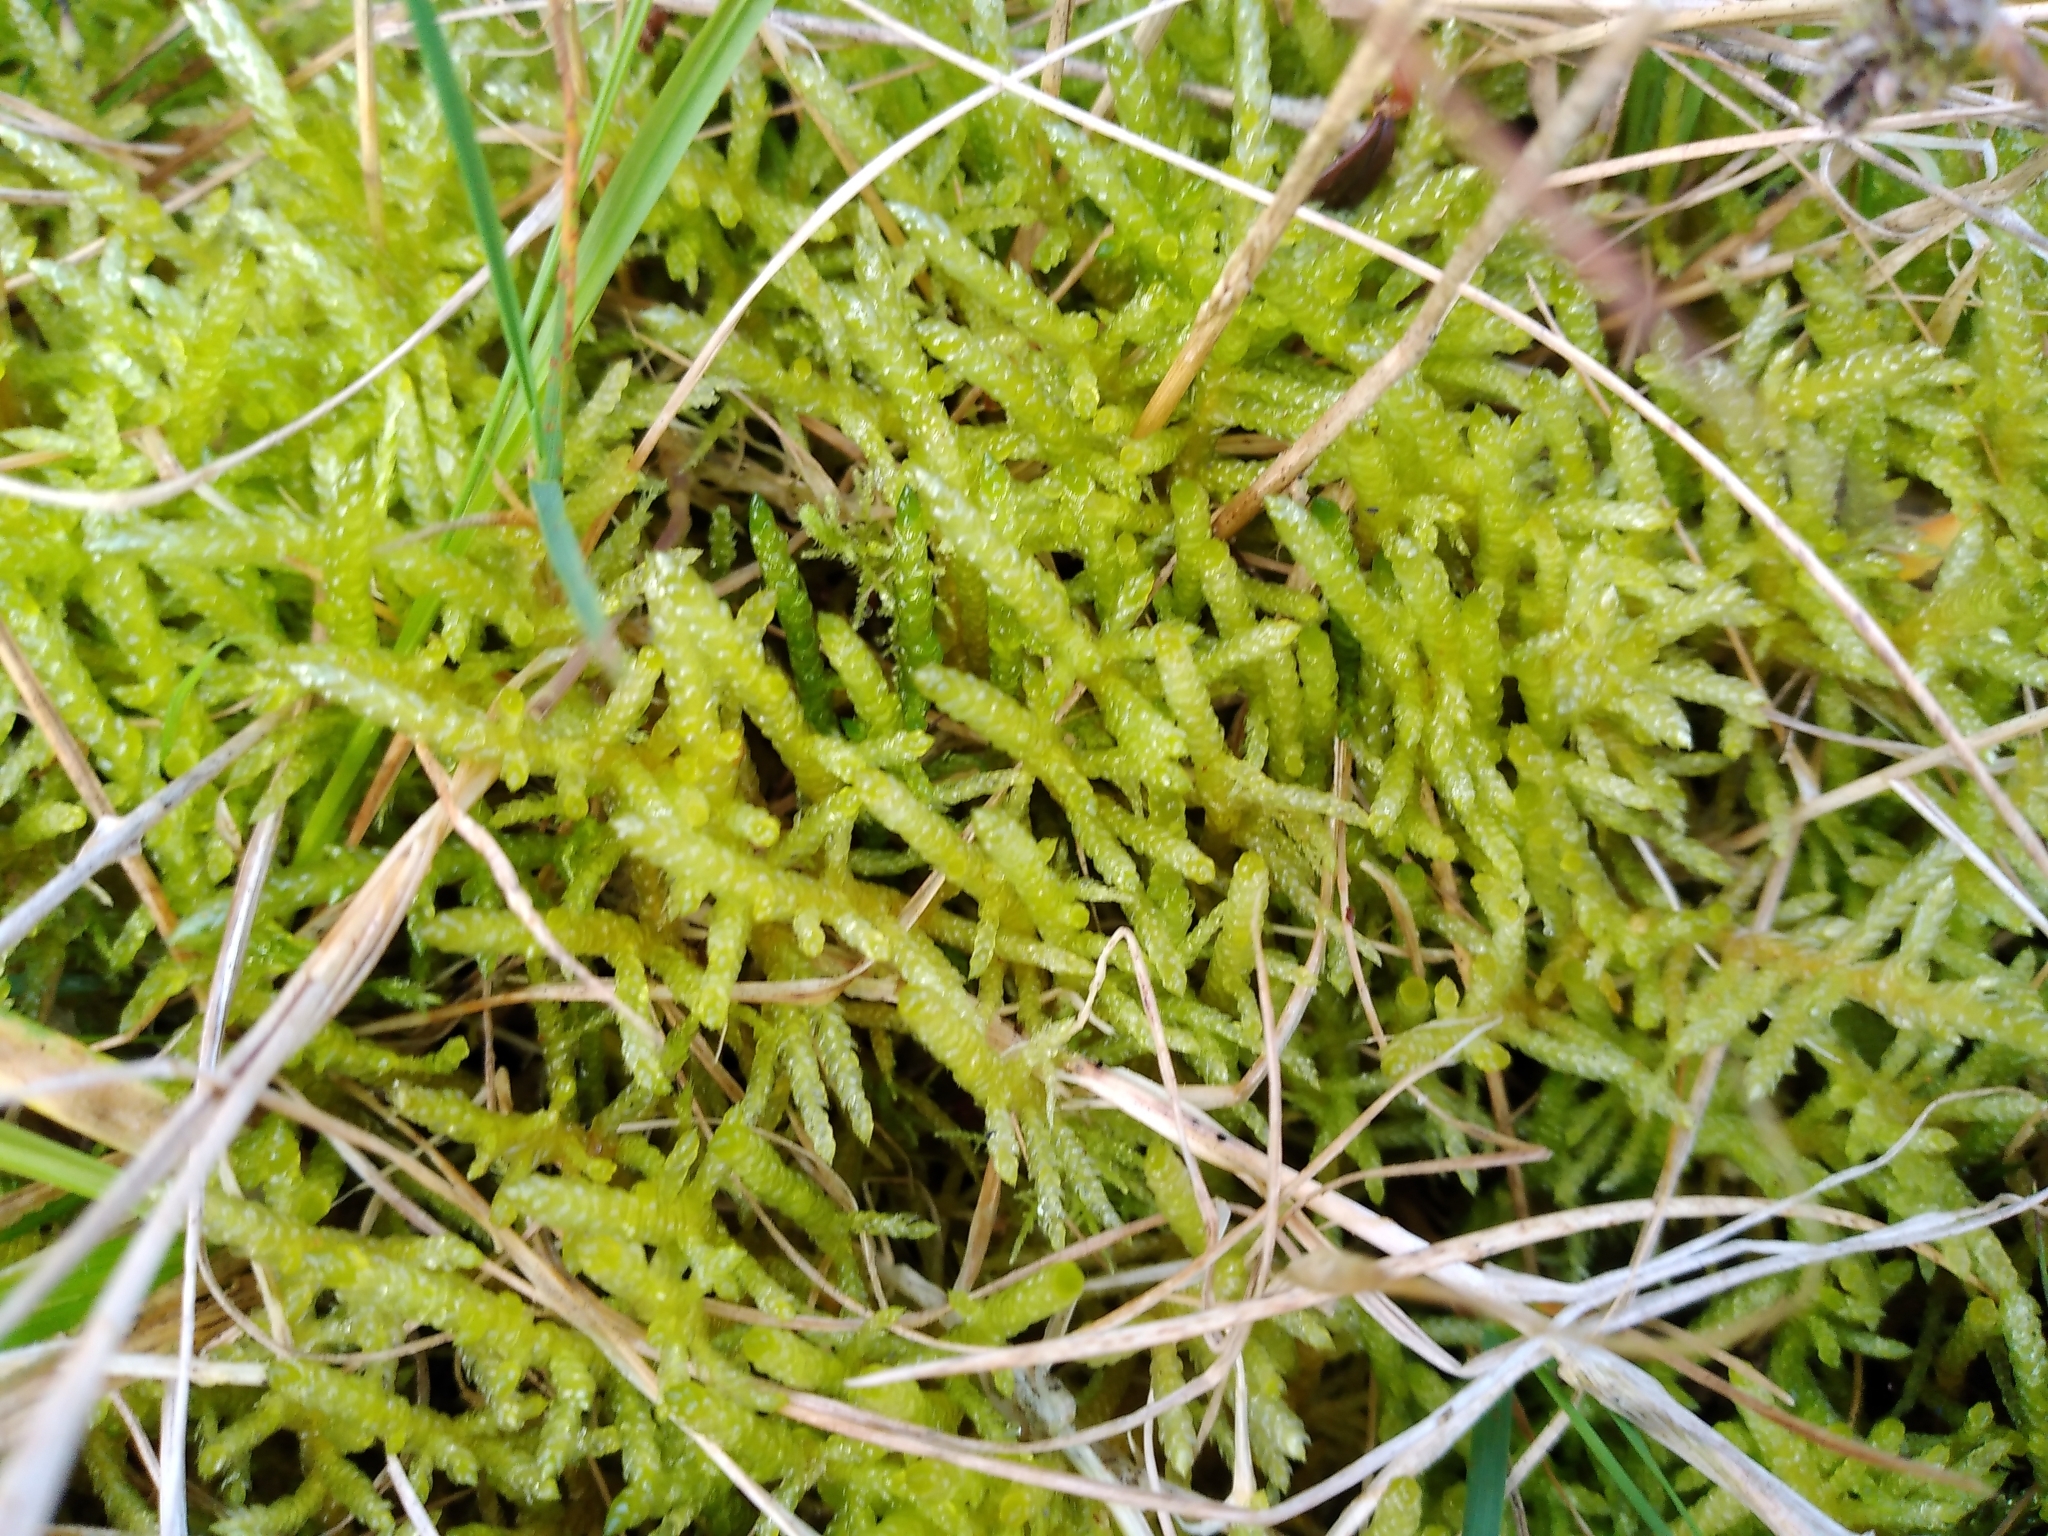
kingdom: Plantae
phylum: Bryophyta
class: Bryopsida
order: Hypnales
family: Brachytheciaceae
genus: Pseudoscleropodium
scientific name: Pseudoscleropodium purum
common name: Neat feather-moss
